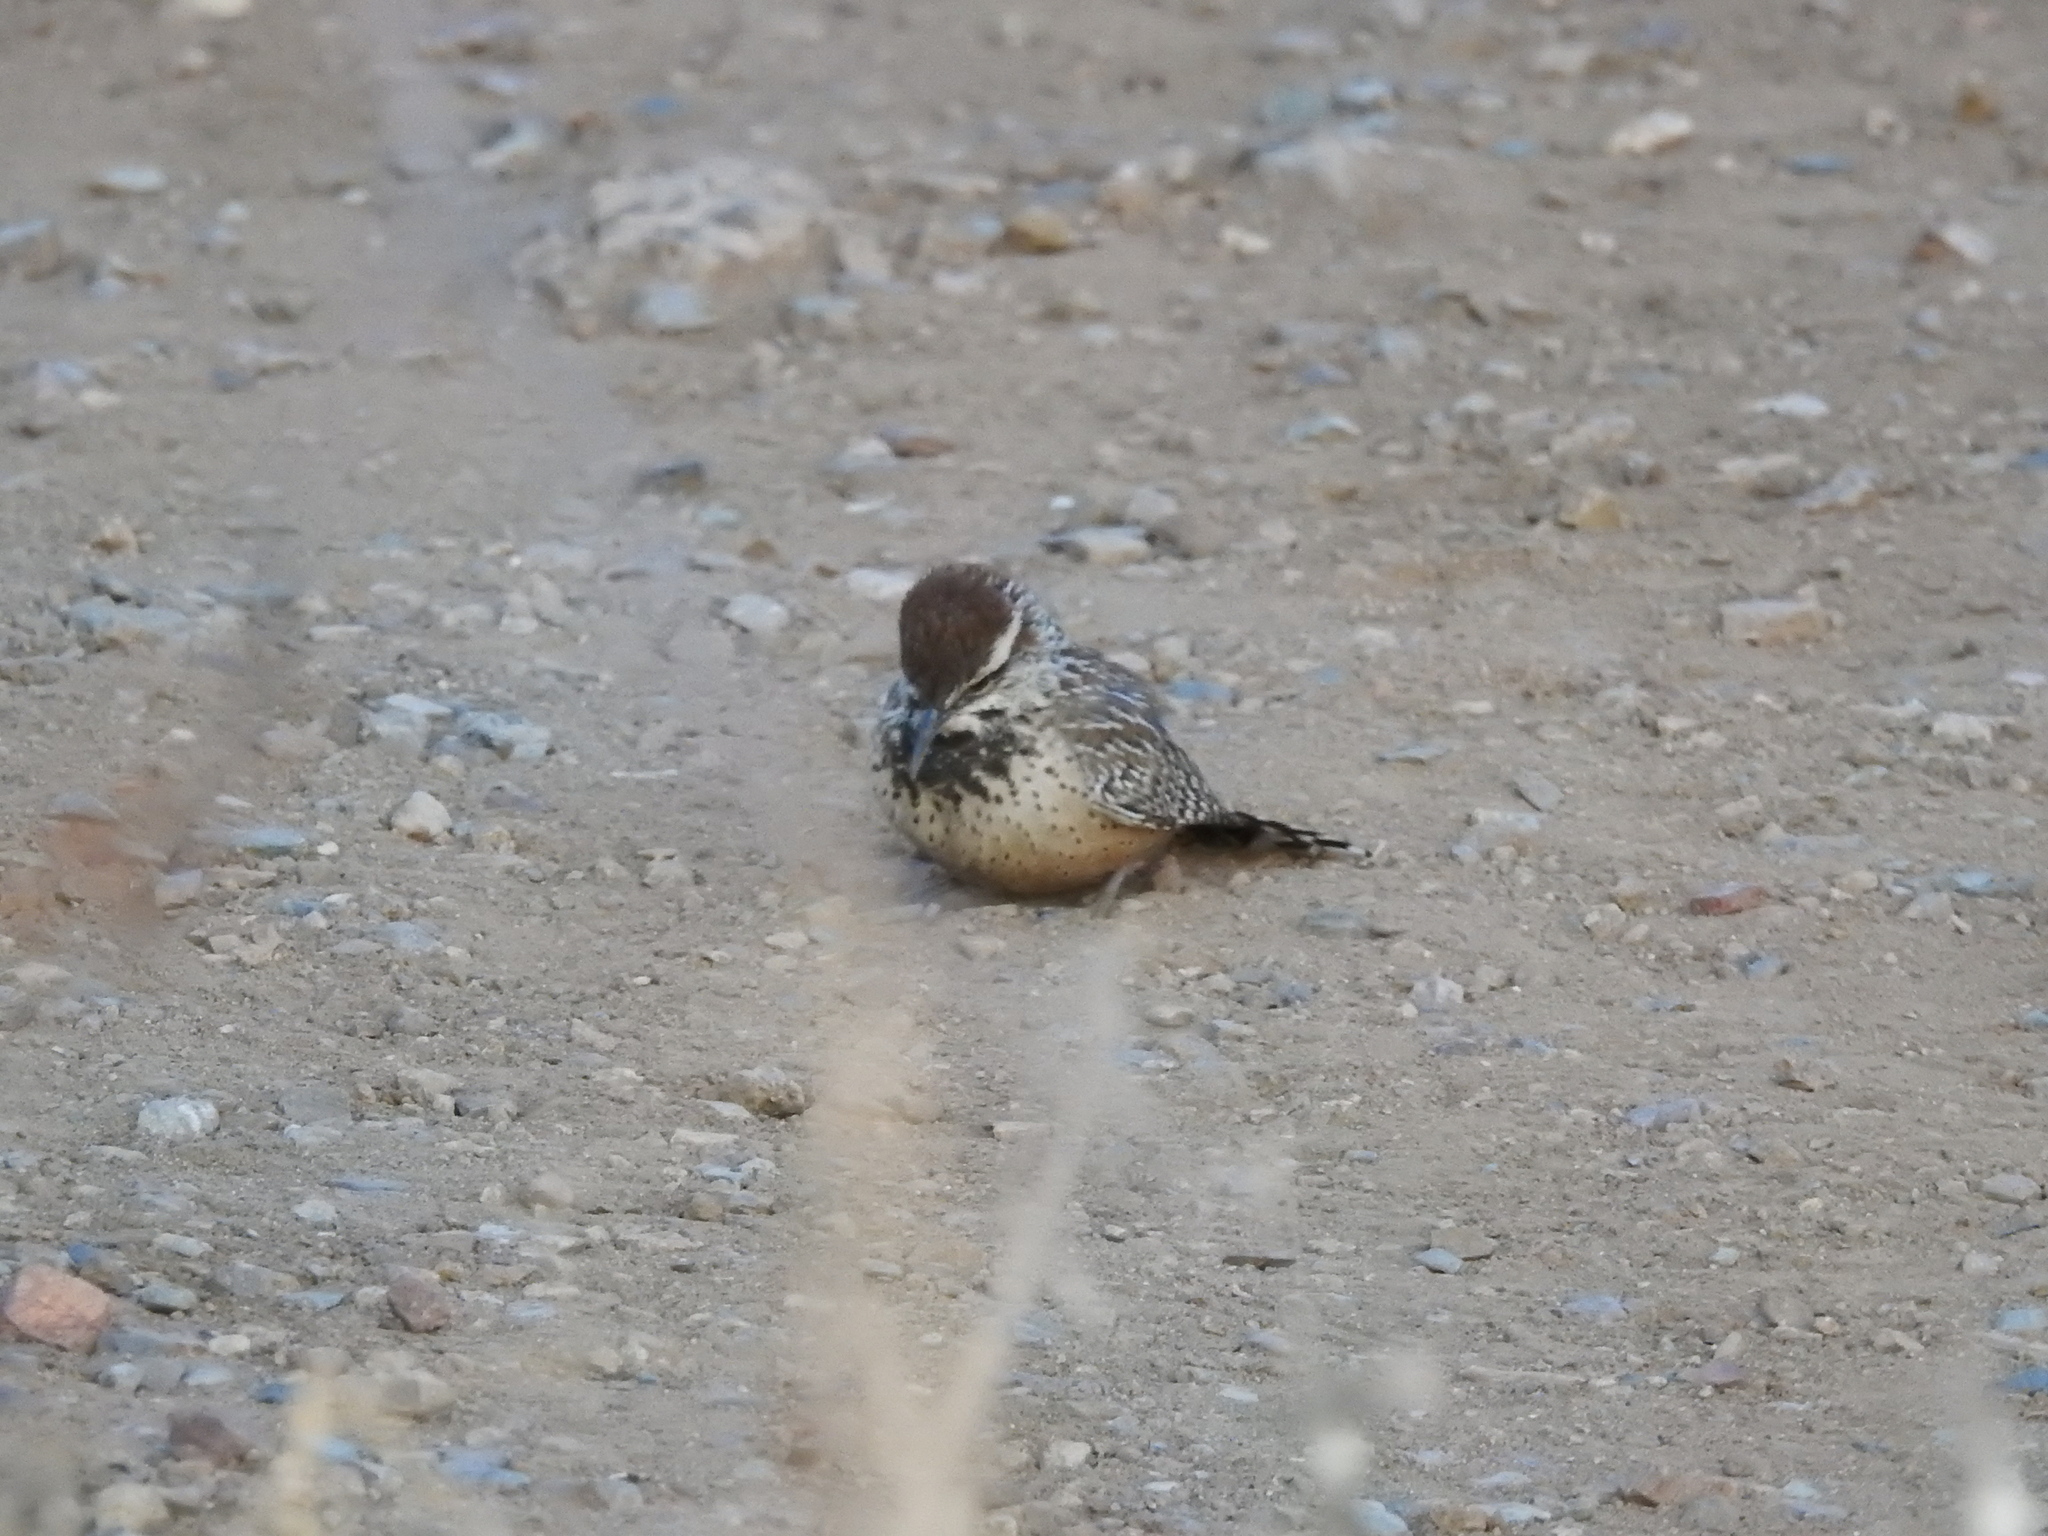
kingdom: Animalia
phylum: Chordata
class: Aves
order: Passeriformes
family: Troglodytidae
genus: Campylorhynchus
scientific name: Campylorhynchus brunneicapillus
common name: Cactus wren
